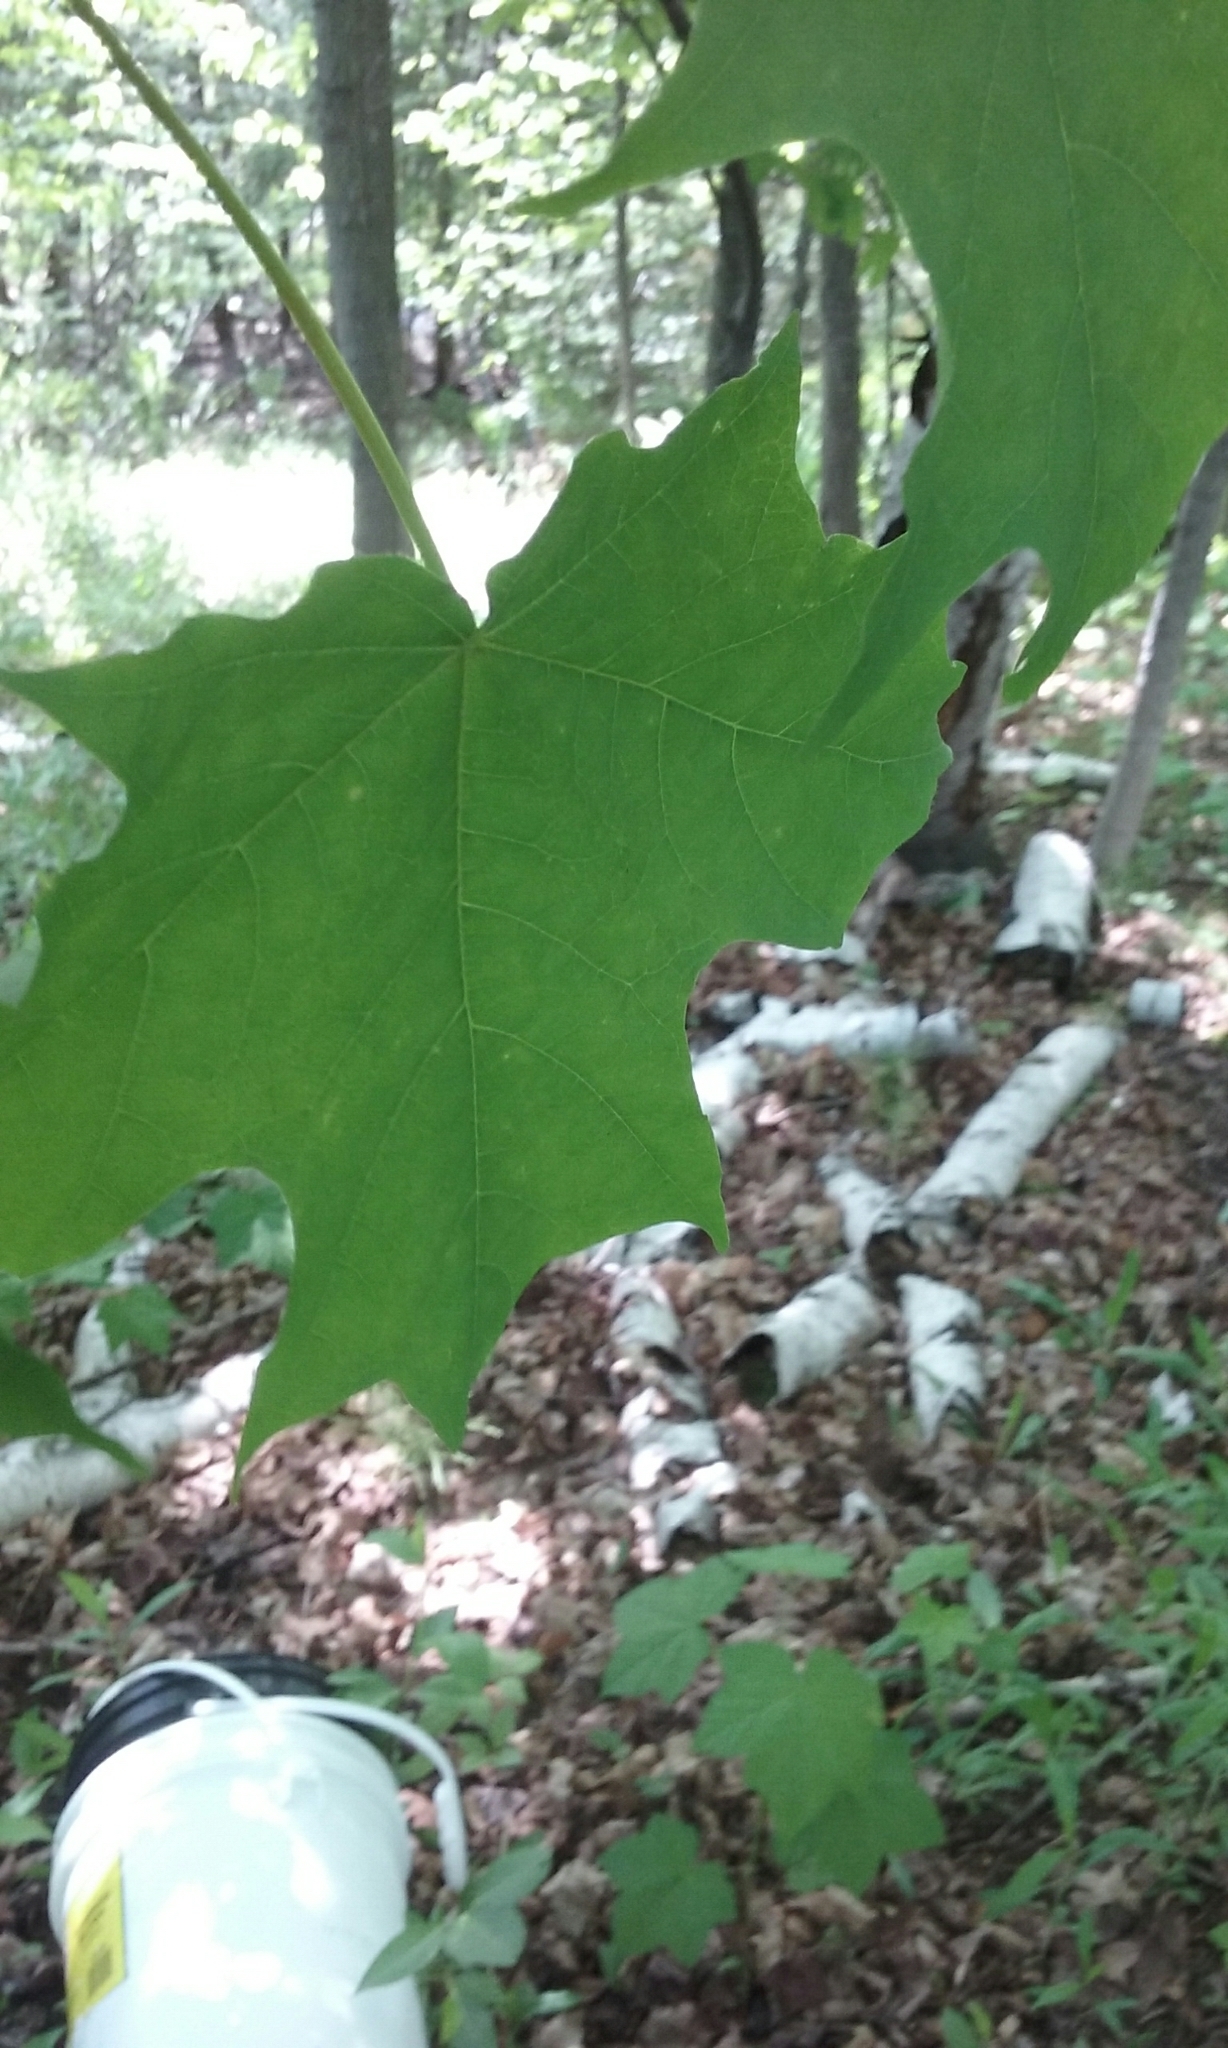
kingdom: Plantae
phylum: Tracheophyta
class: Magnoliopsida
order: Sapindales
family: Sapindaceae
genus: Acer
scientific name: Acer saccharum
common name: Sugar maple
